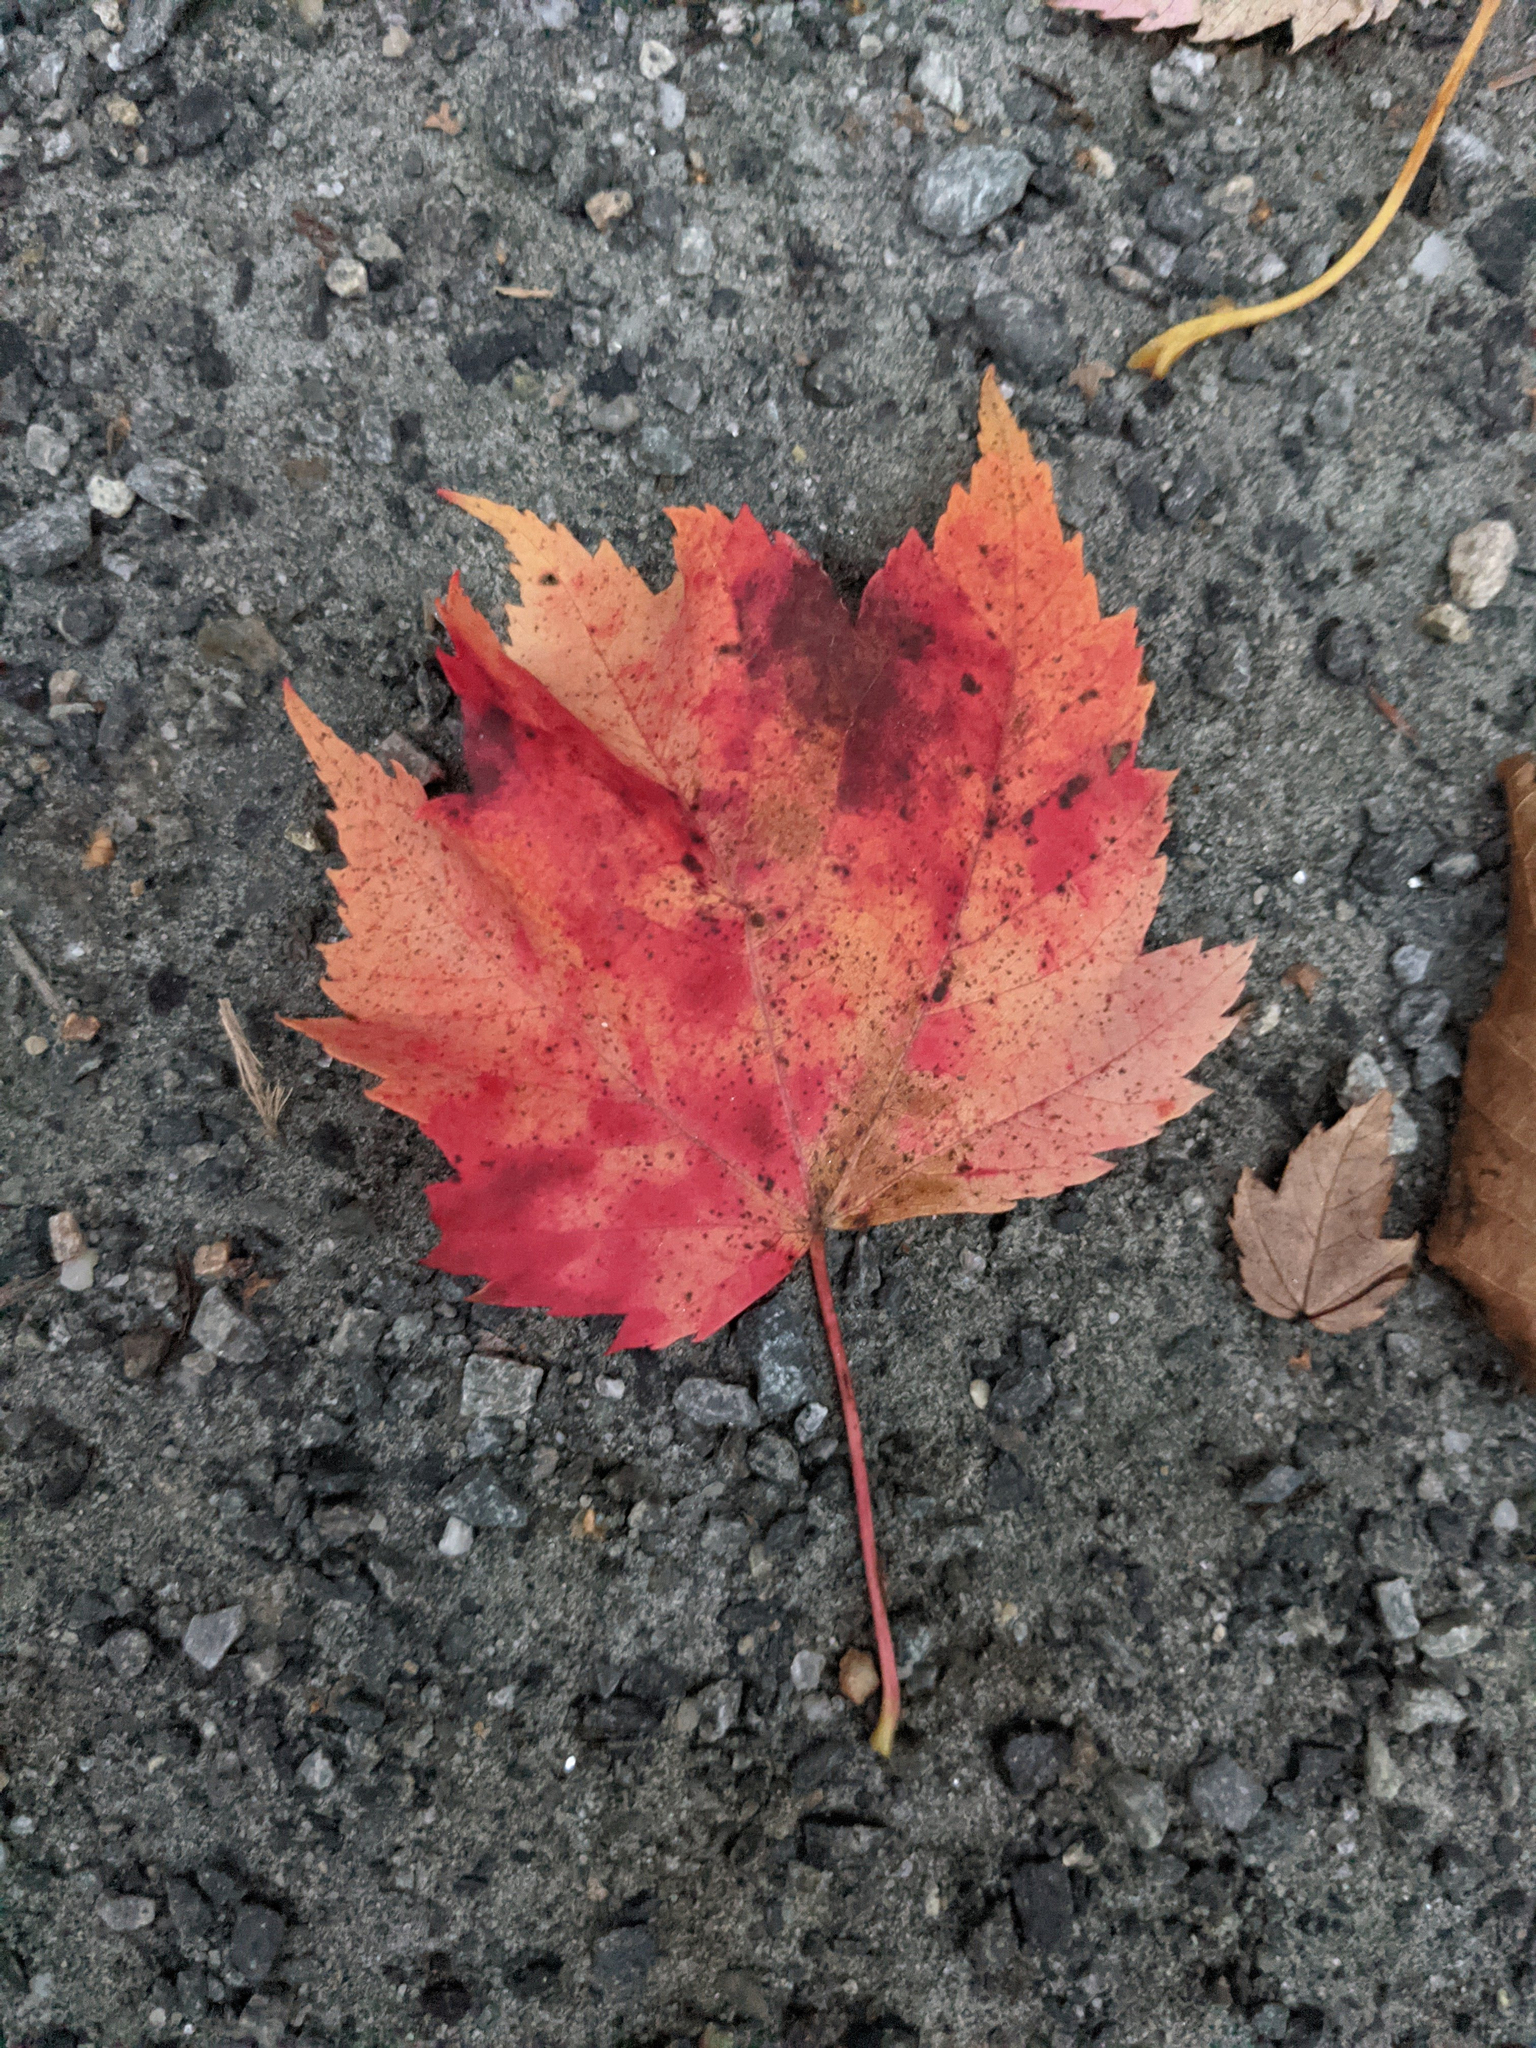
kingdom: Plantae
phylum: Tracheophyta
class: Magnoliopsida
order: Sapindales
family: Sapindaceae
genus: Acer
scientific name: Acer rubrum
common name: Red maple
